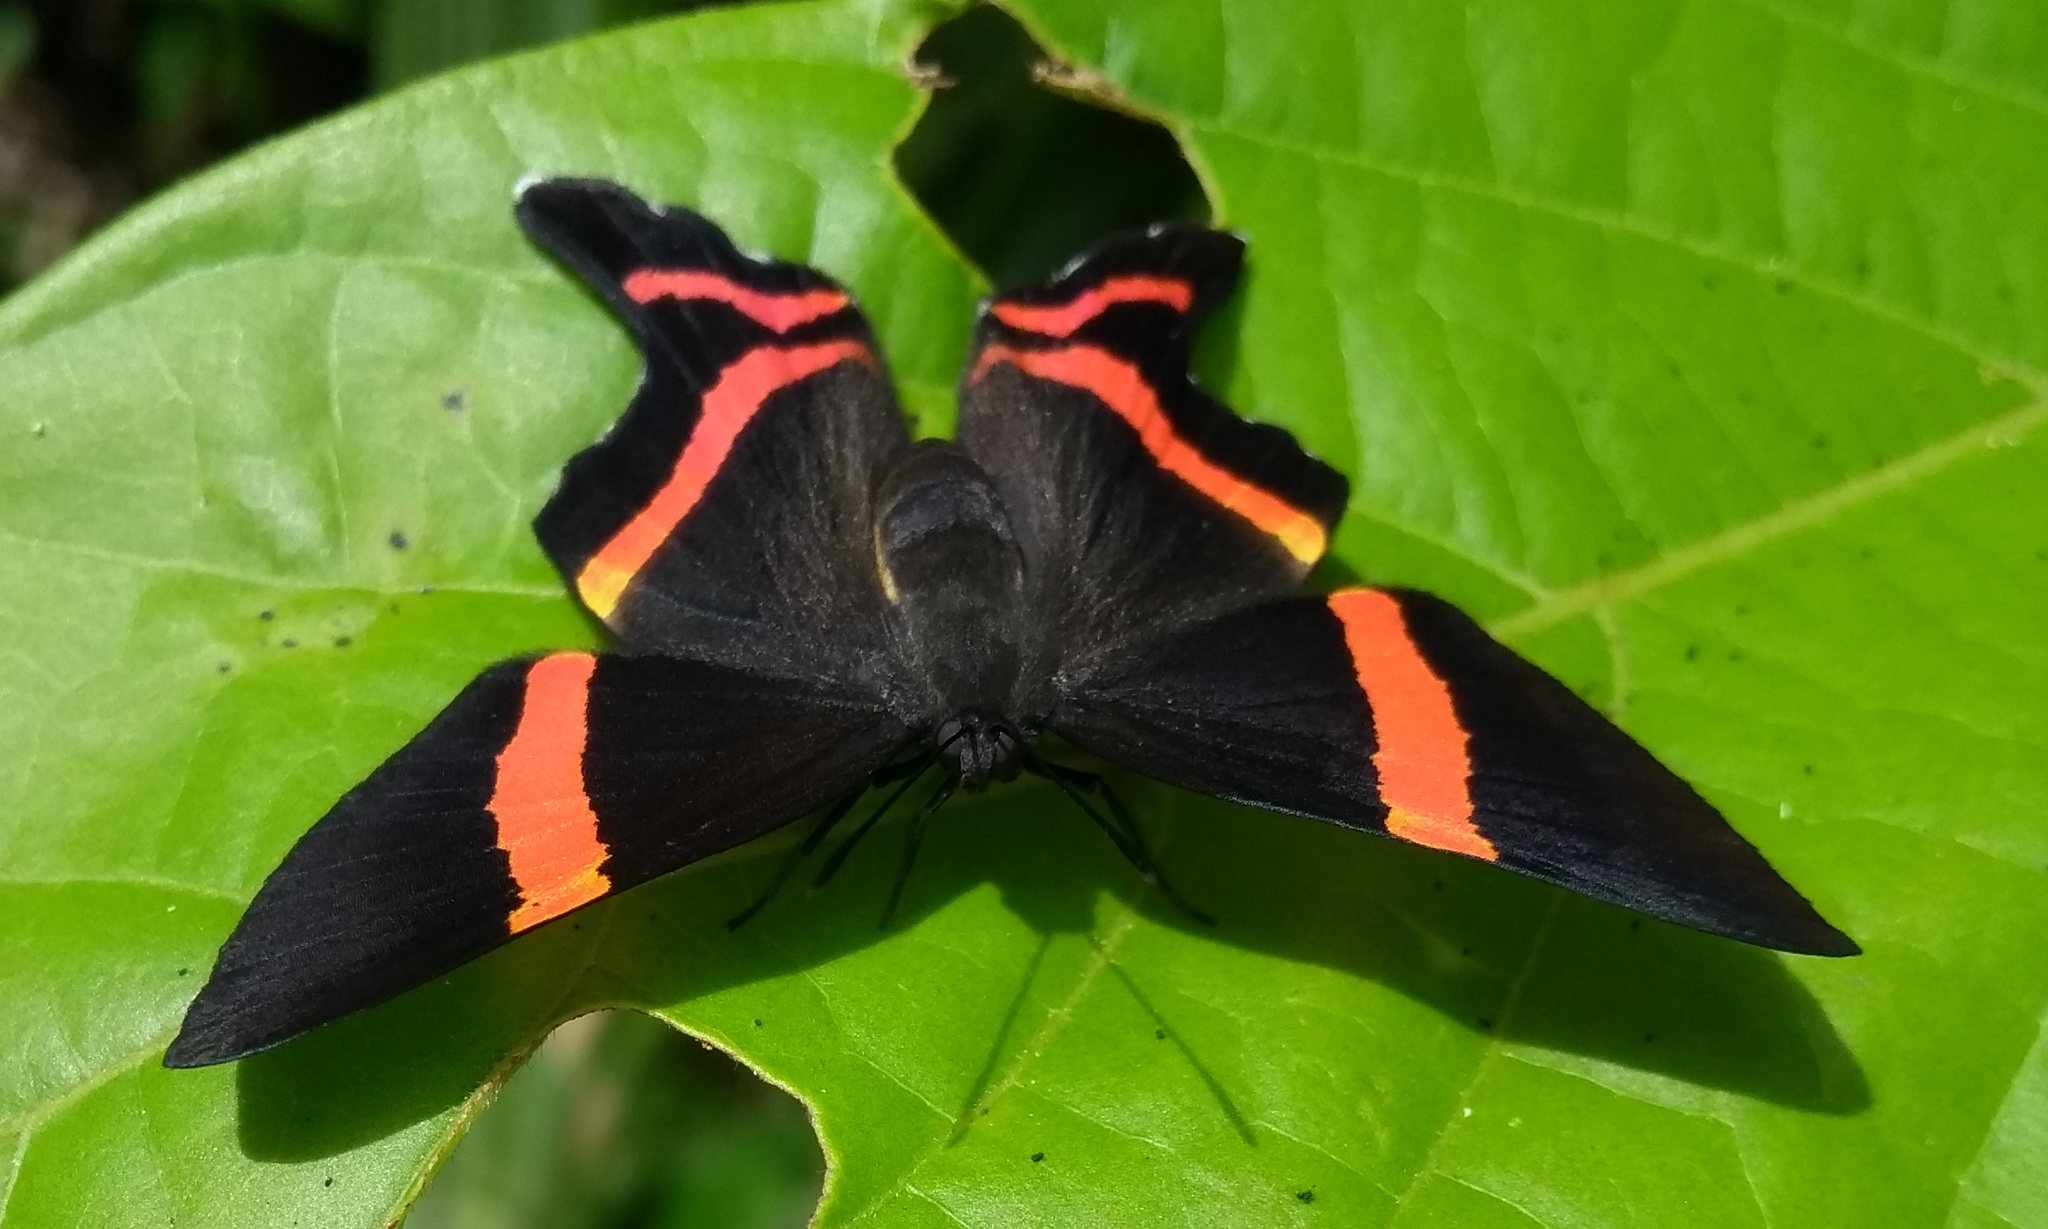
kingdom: Animalia
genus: Ancyluris
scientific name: Ancyluris aulestes
